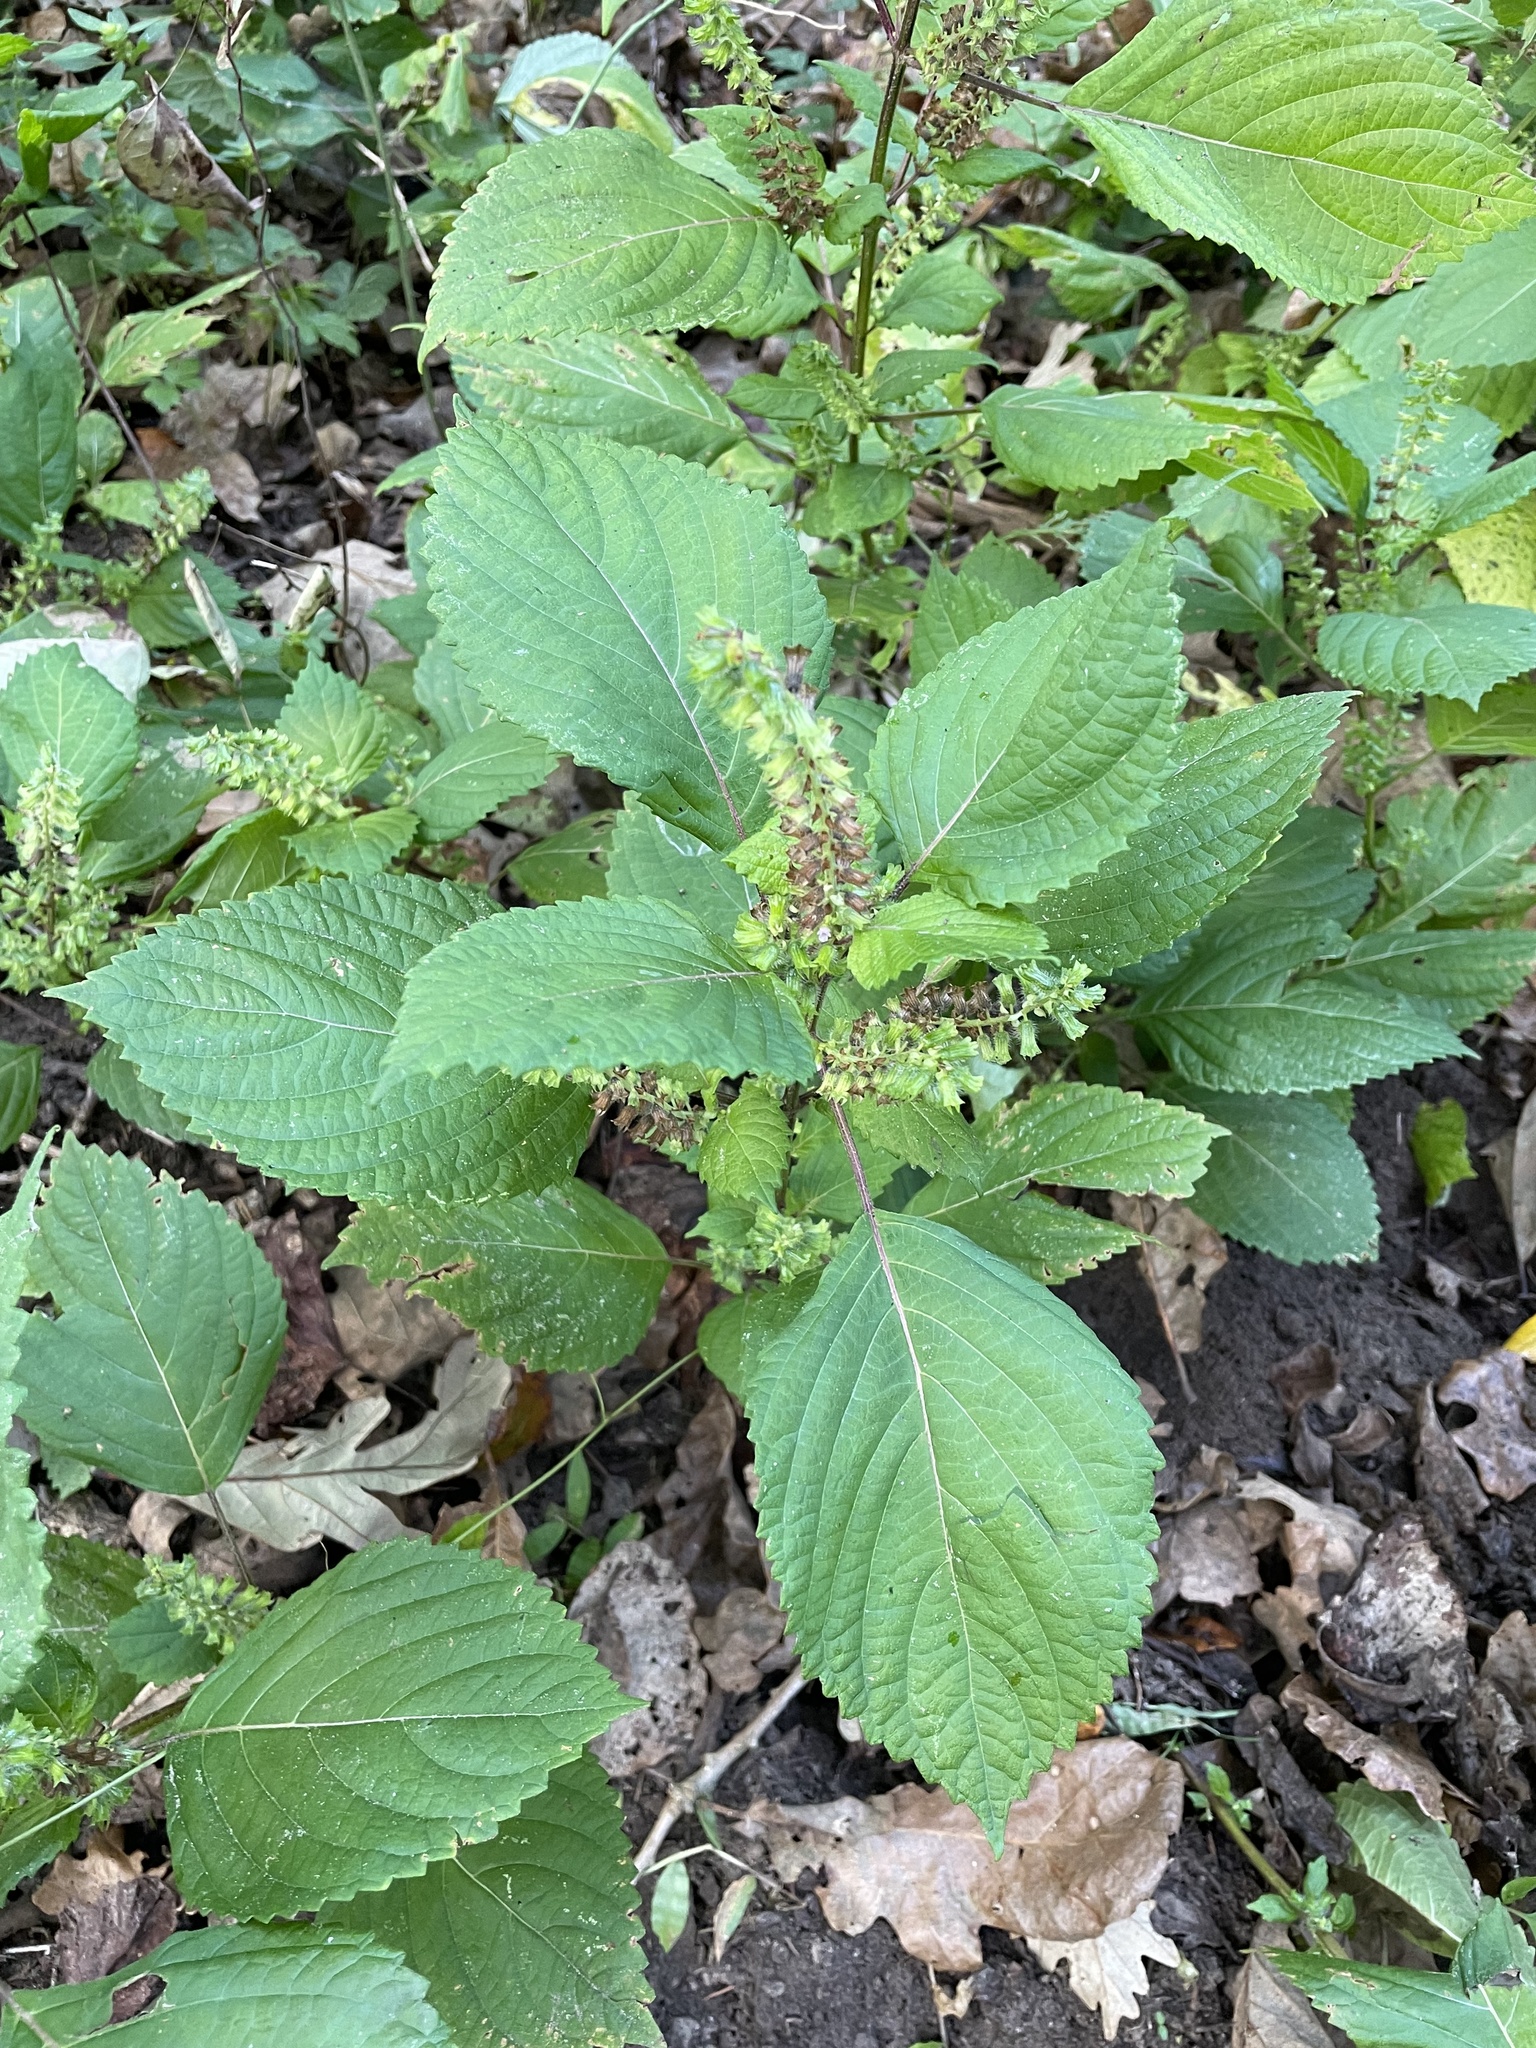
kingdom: Plantae
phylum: Tracheophyta
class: Magnoliopsida
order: Lamiales
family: Lamiaceae
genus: Perilla
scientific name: Perilla frutescens
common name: Perilla
